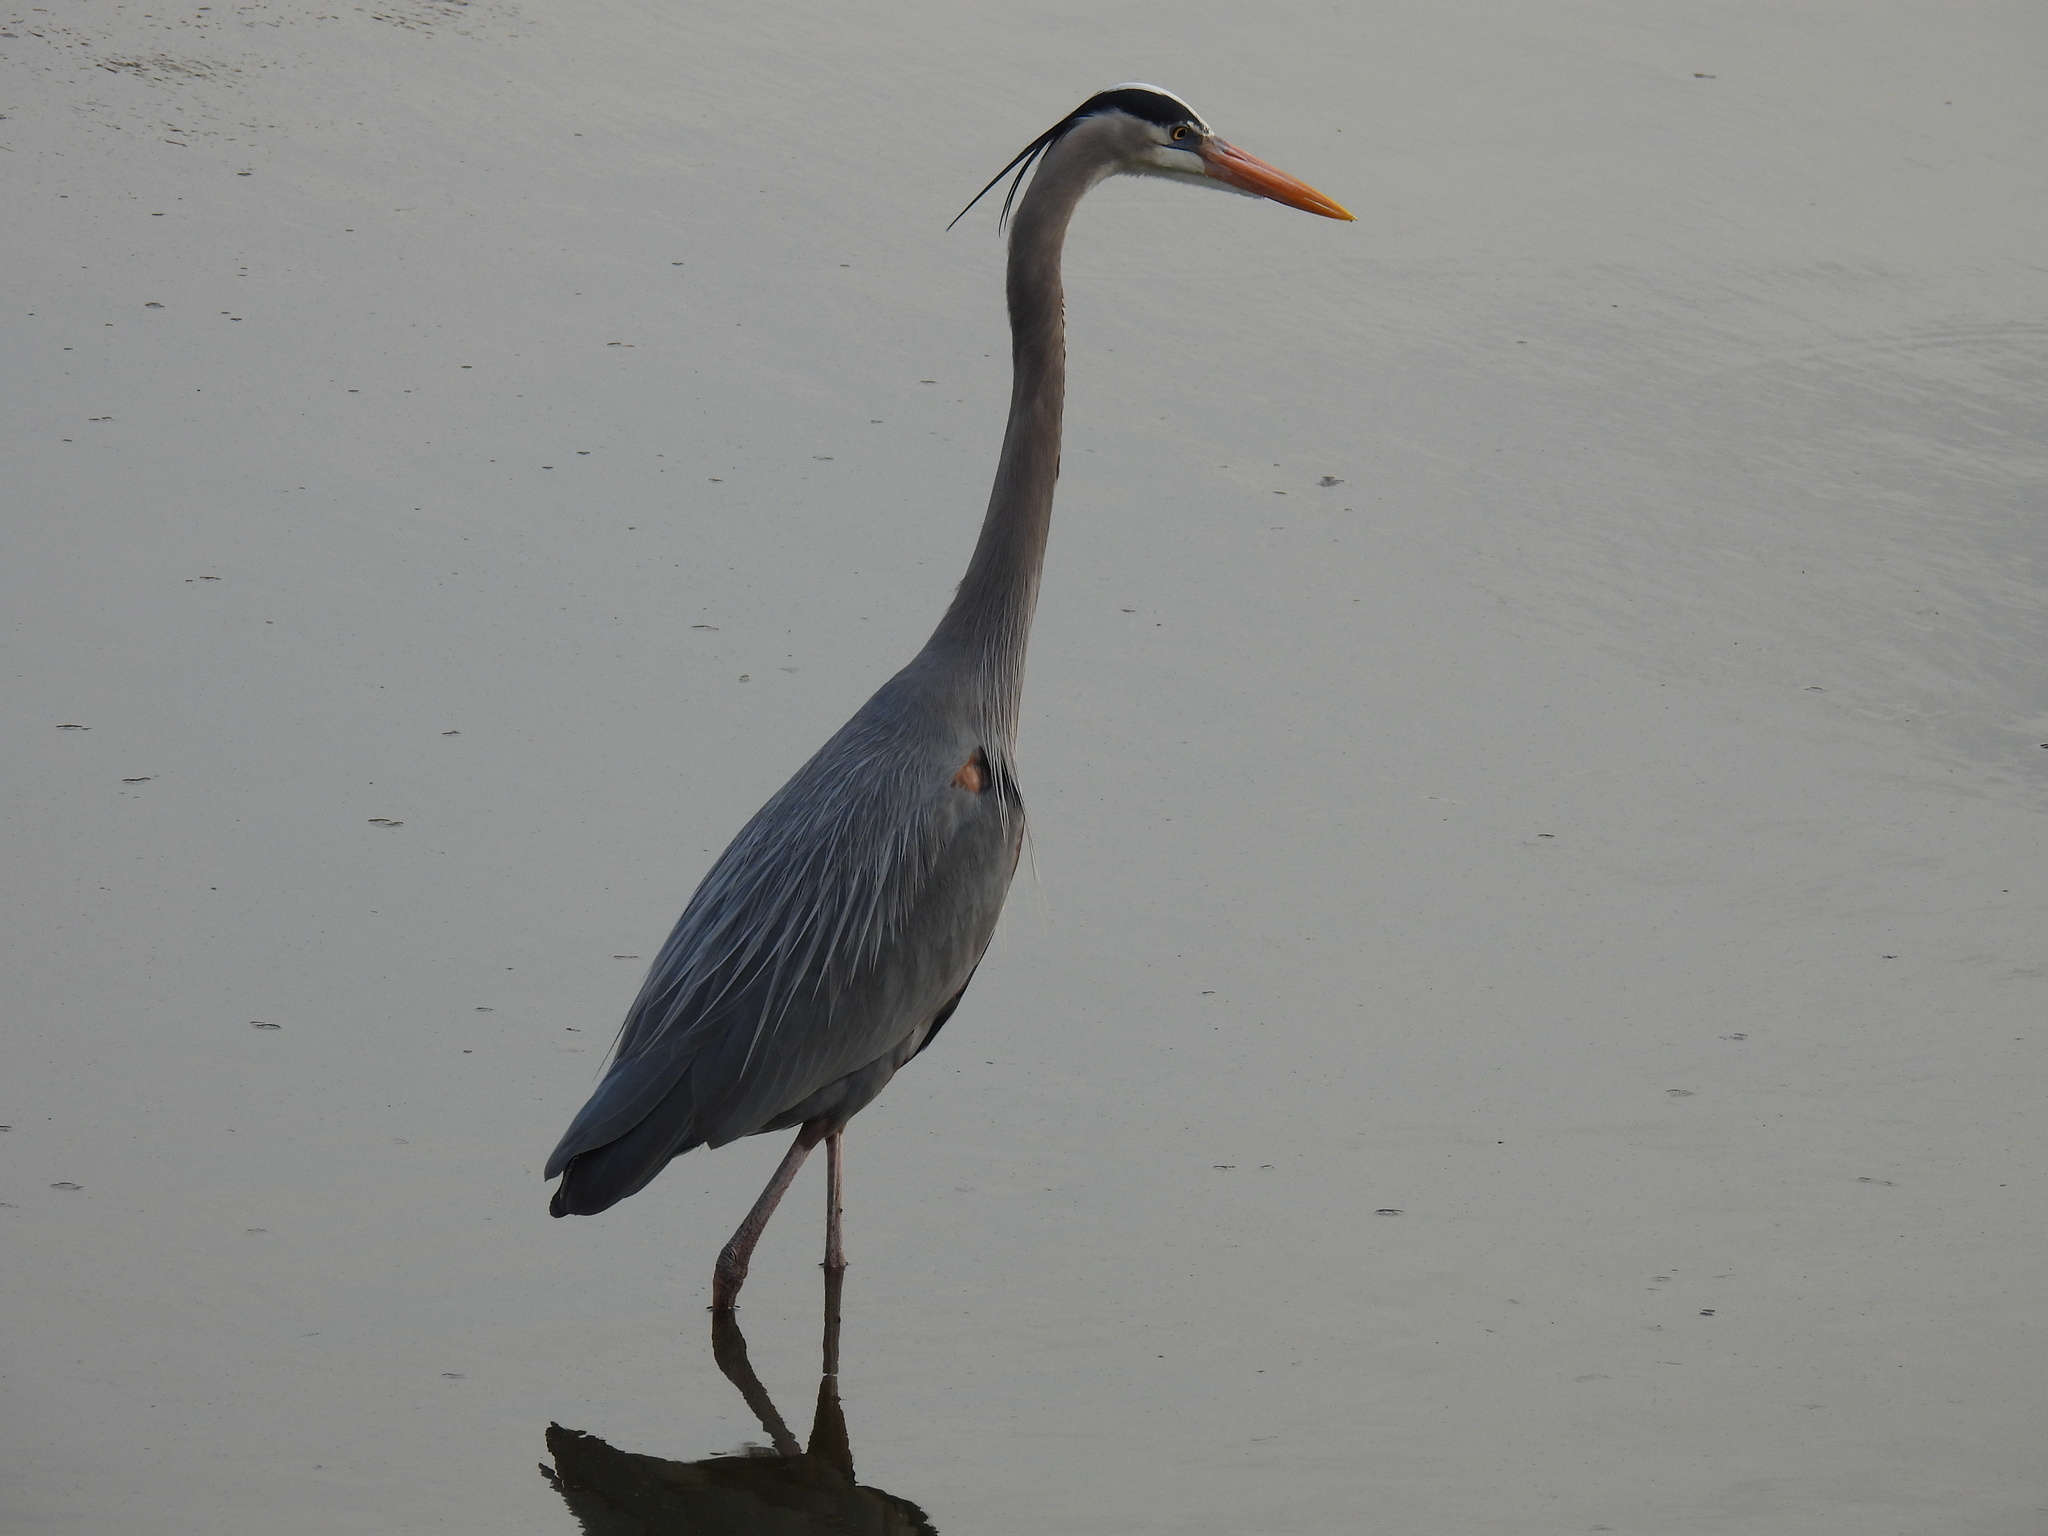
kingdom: Animalia
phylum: Chordata
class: Aves
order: Pelecaniformes
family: Ardeidae
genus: Ardea
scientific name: Ardea herodias
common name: Great blue heron
